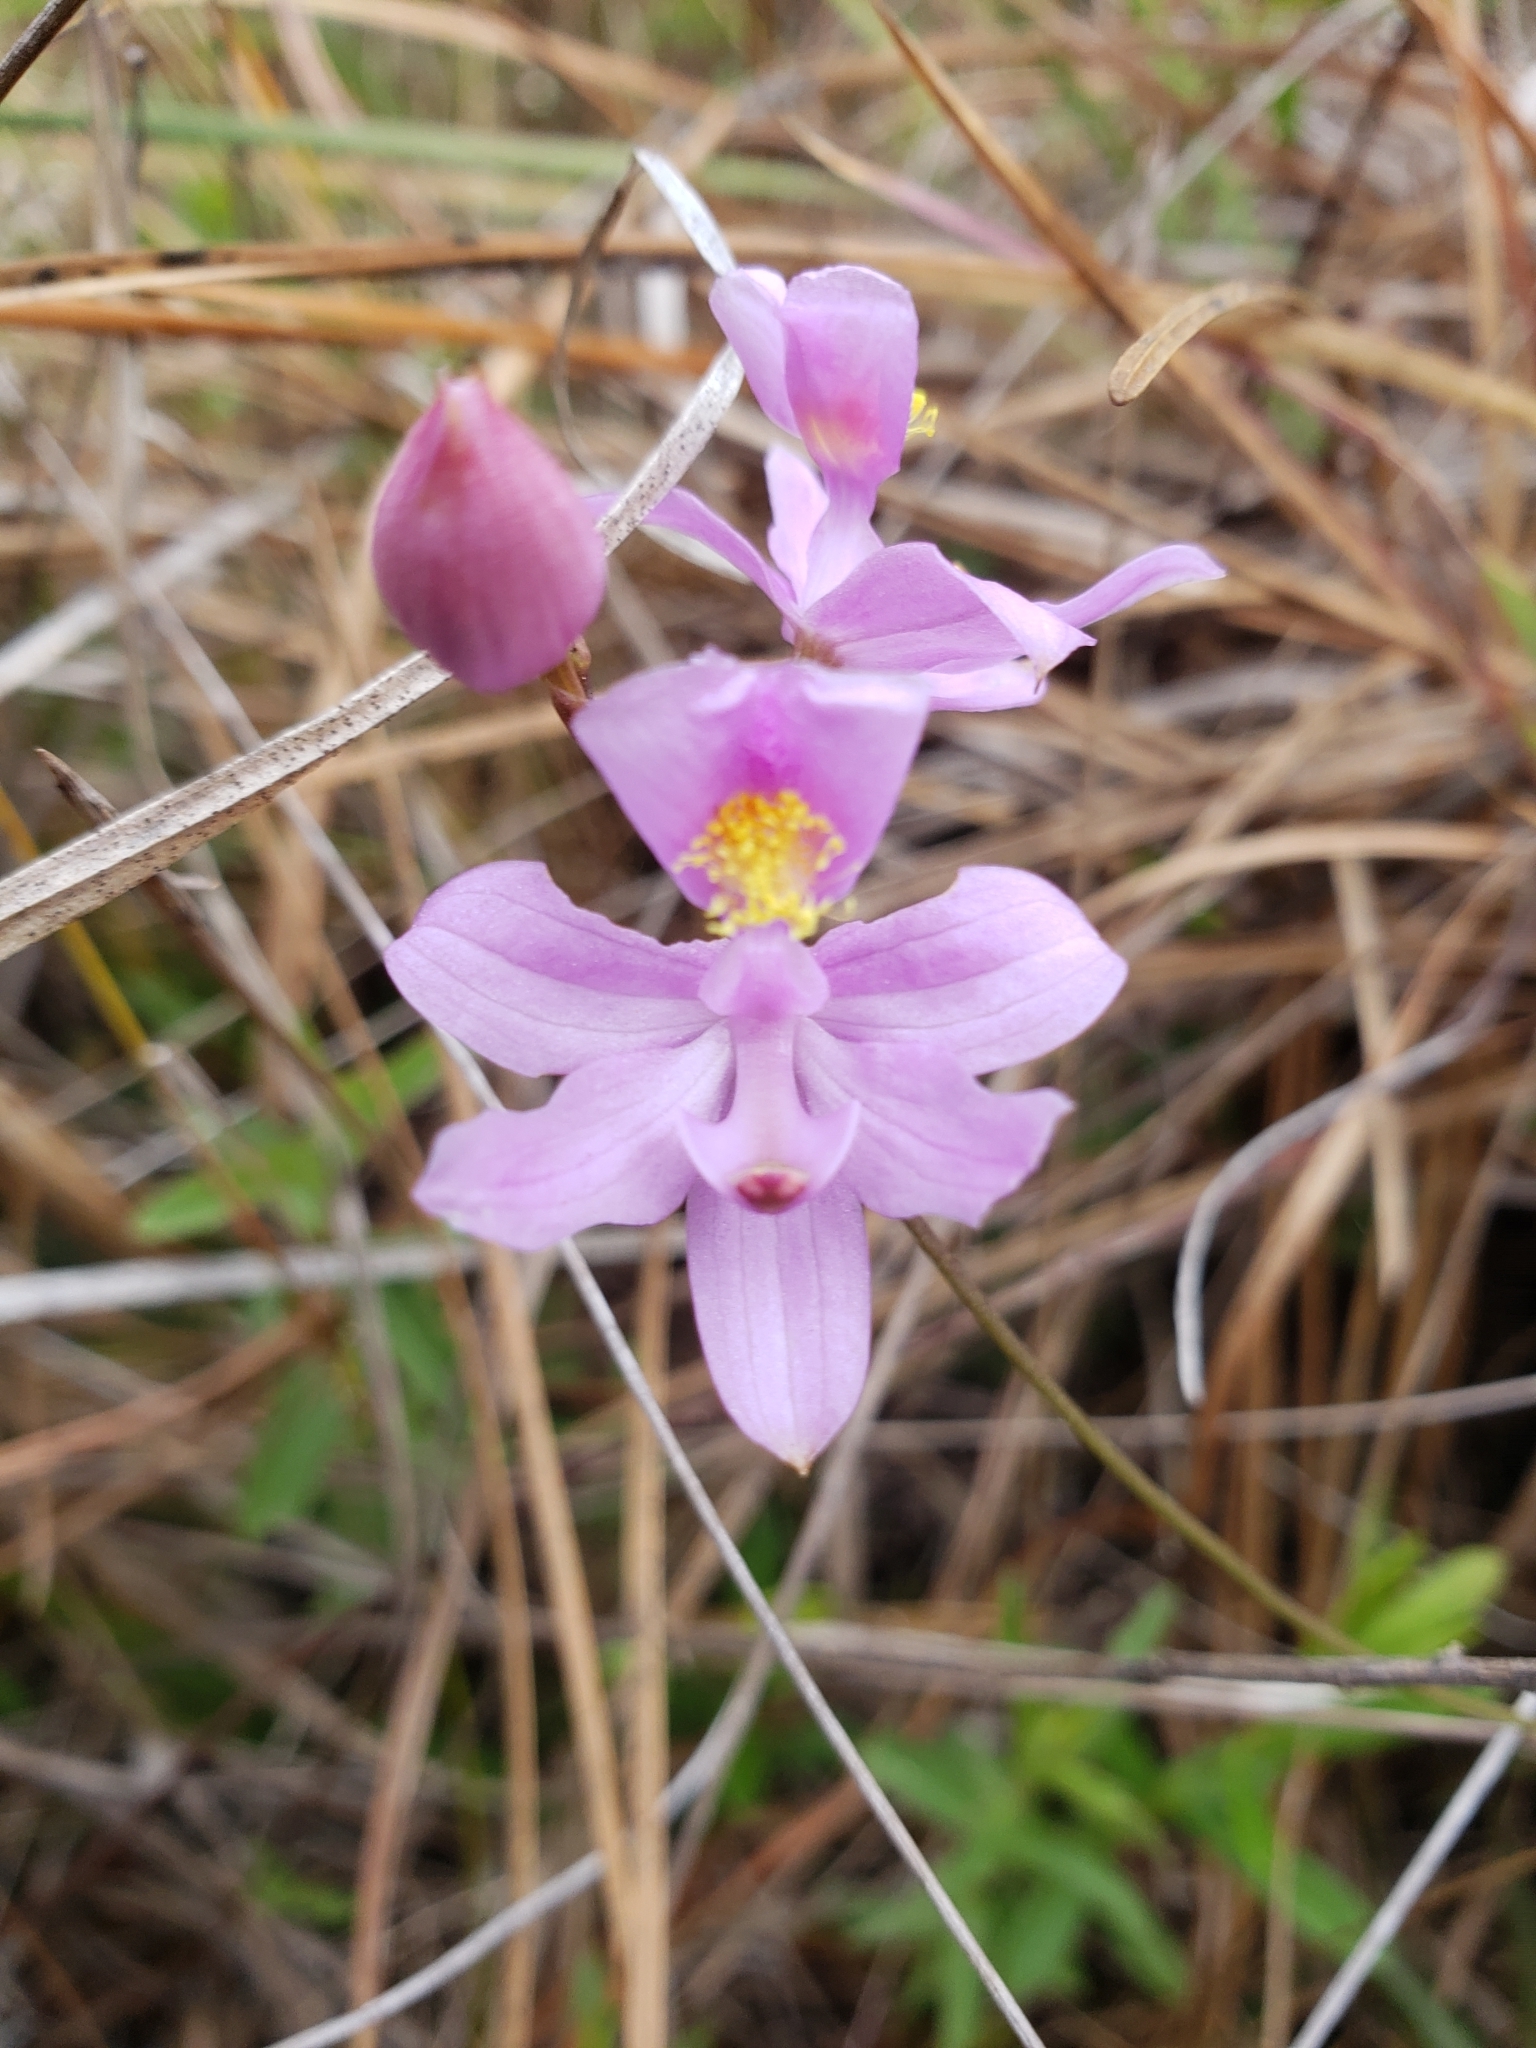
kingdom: Plantae
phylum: Tracheophyta
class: Liliopsida
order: Asparagales
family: Orchidaceae
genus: Calopogon
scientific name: Calopogon barbatus
